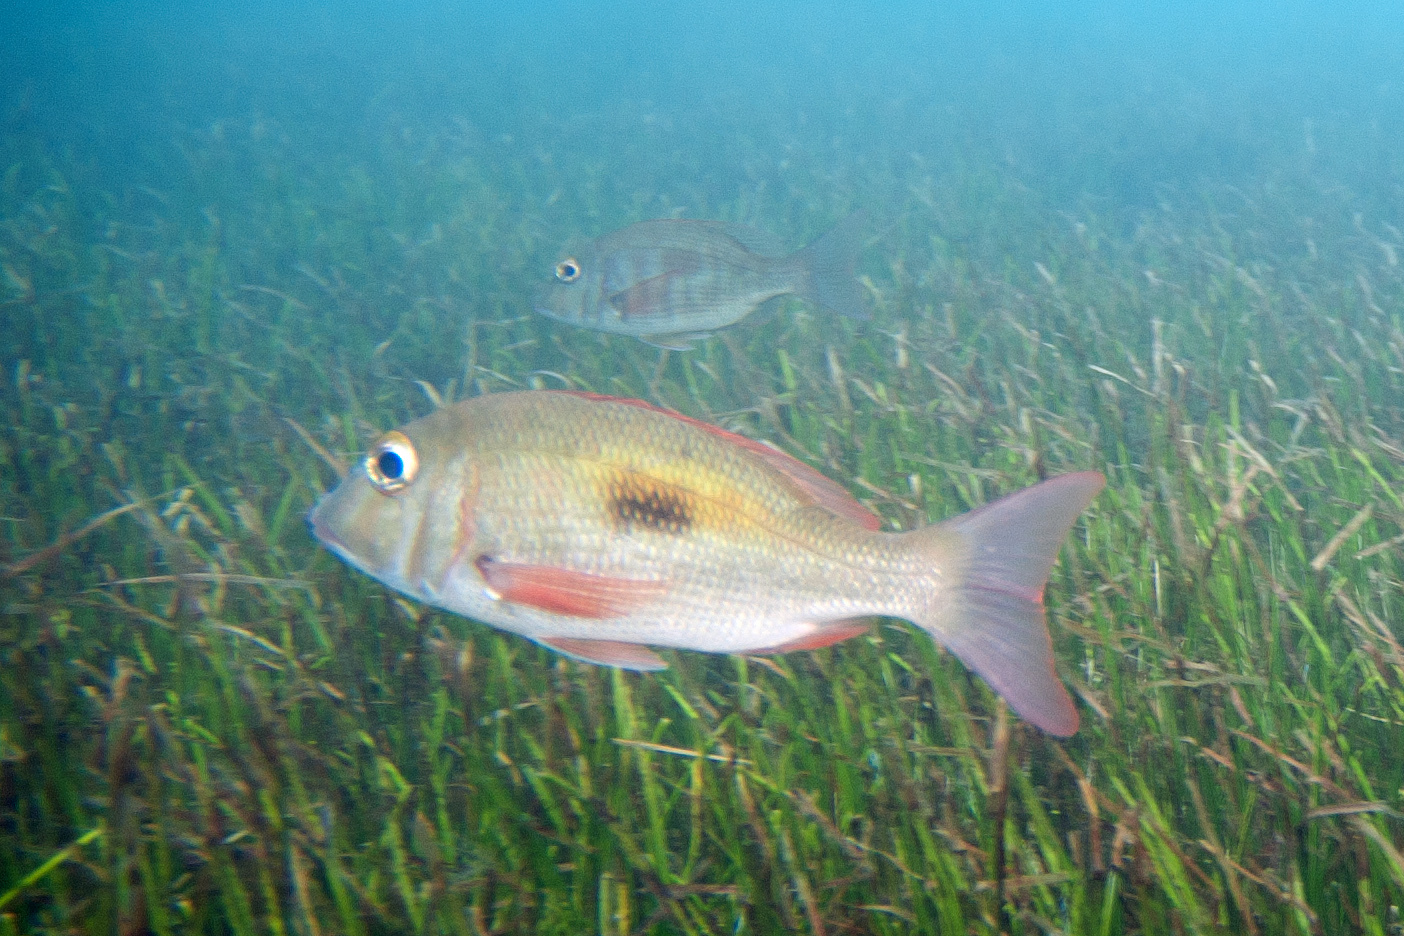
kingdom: Animalia
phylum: Chordata
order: Perciformes
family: Lethrinidae
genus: Lethrinus
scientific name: Lethrinus harak
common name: Blackspot emperor
